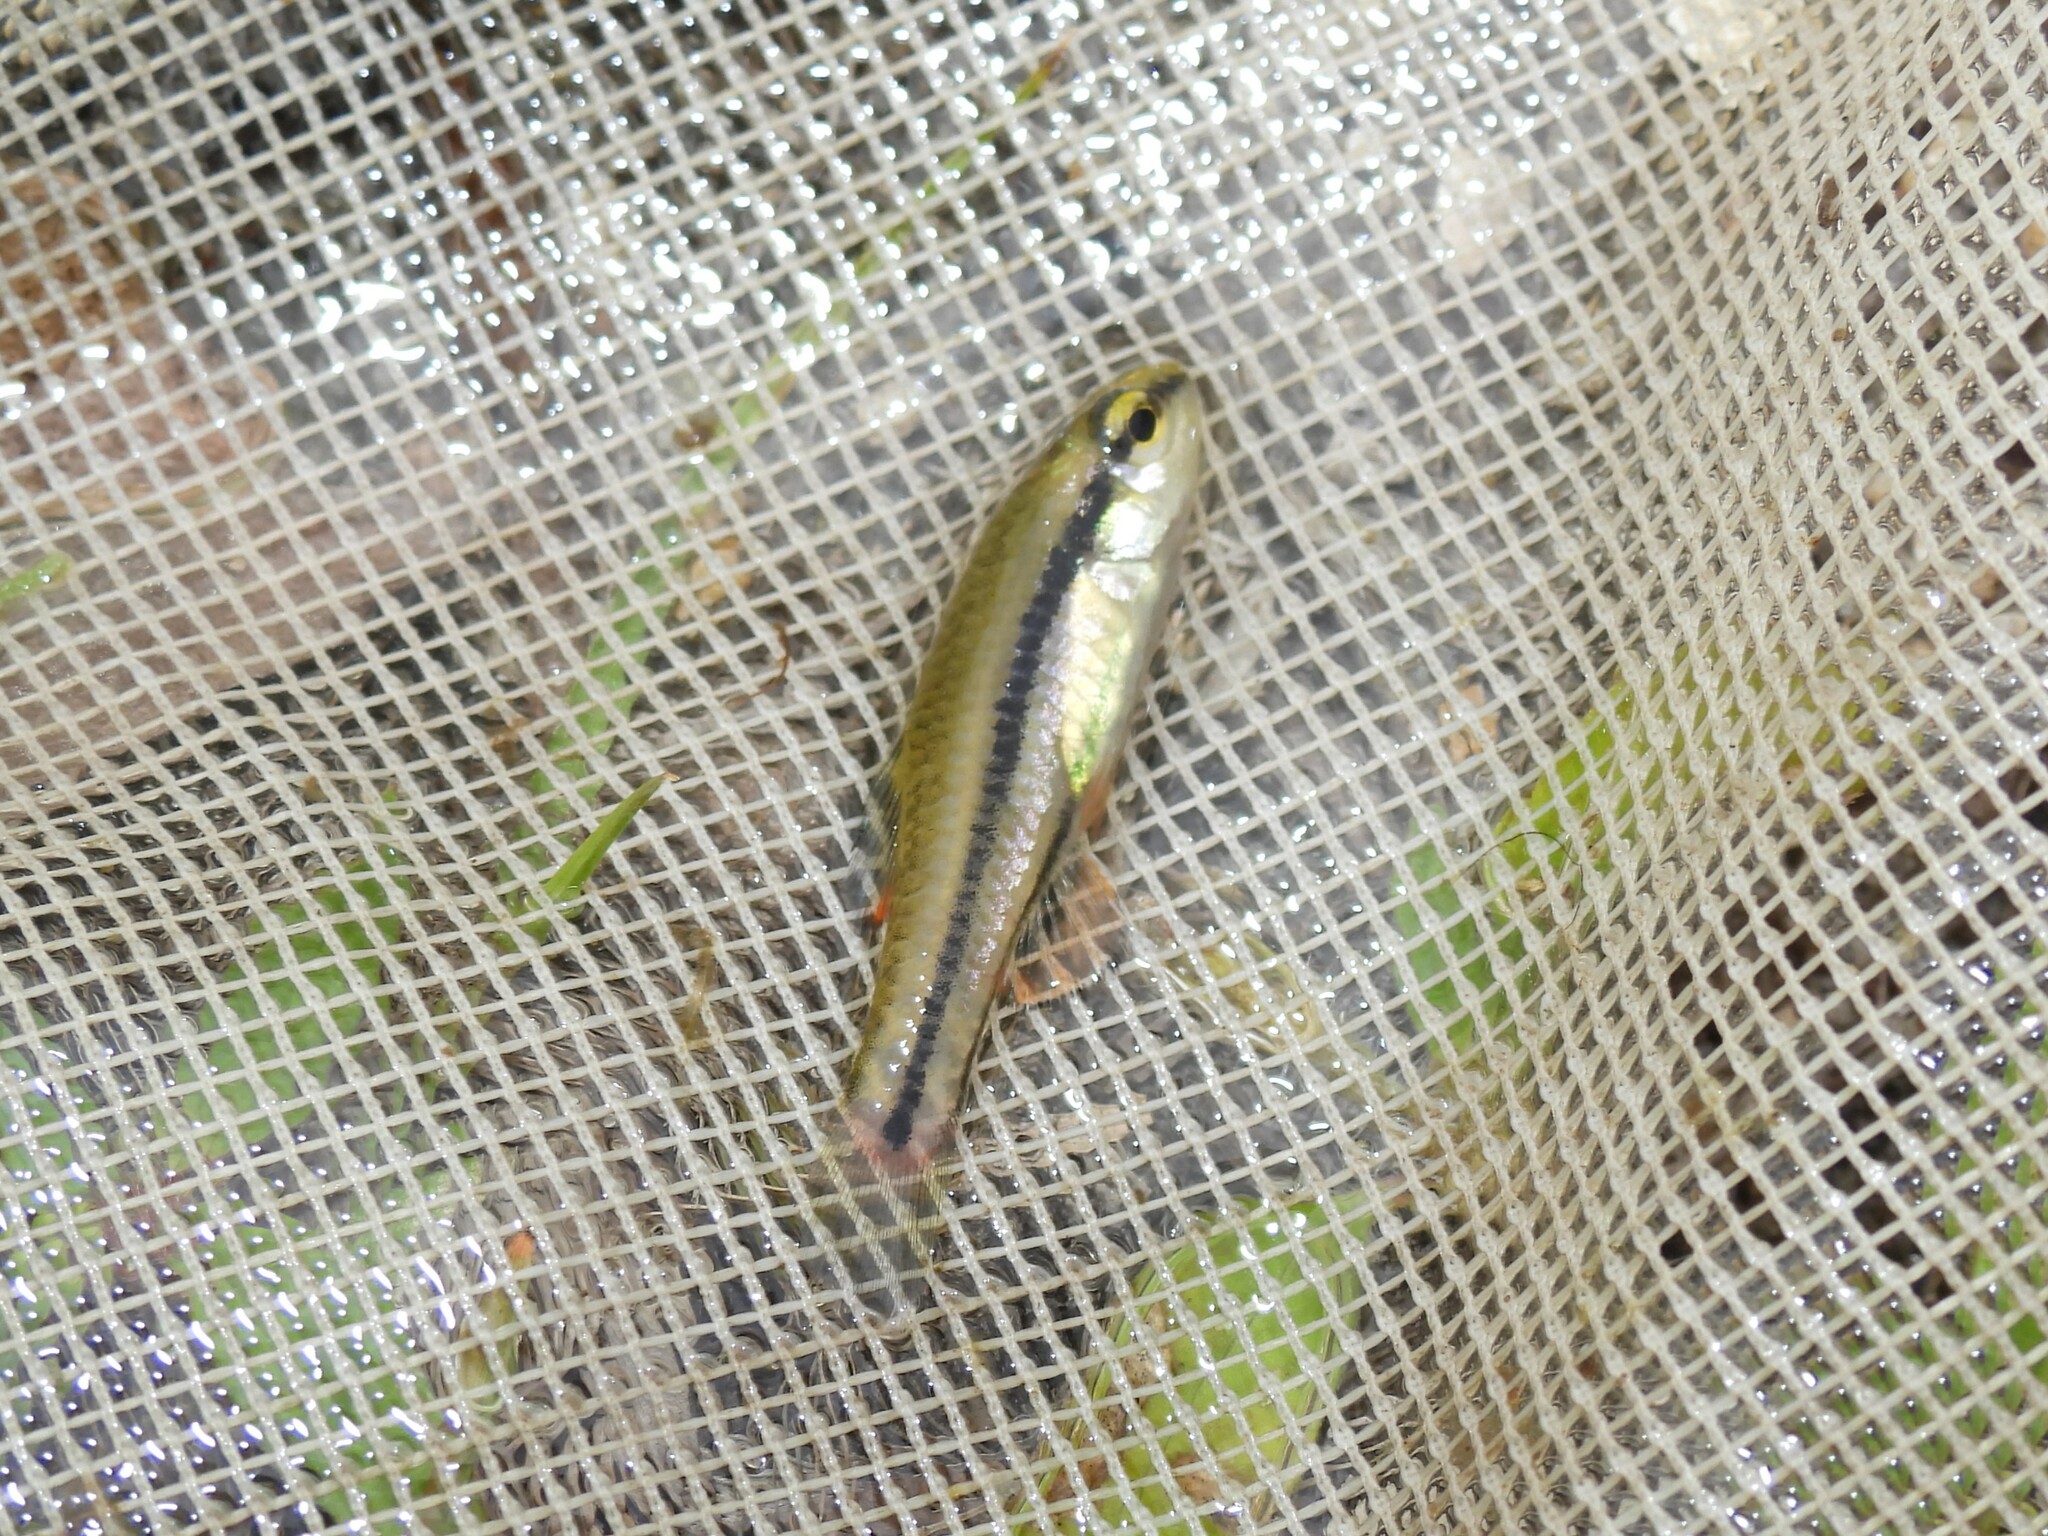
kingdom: Animalia
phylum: Chordata
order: Cyprinodontiformes
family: Fundulidae
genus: Lucania
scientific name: Lucania goodei
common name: Bluefin killifish
